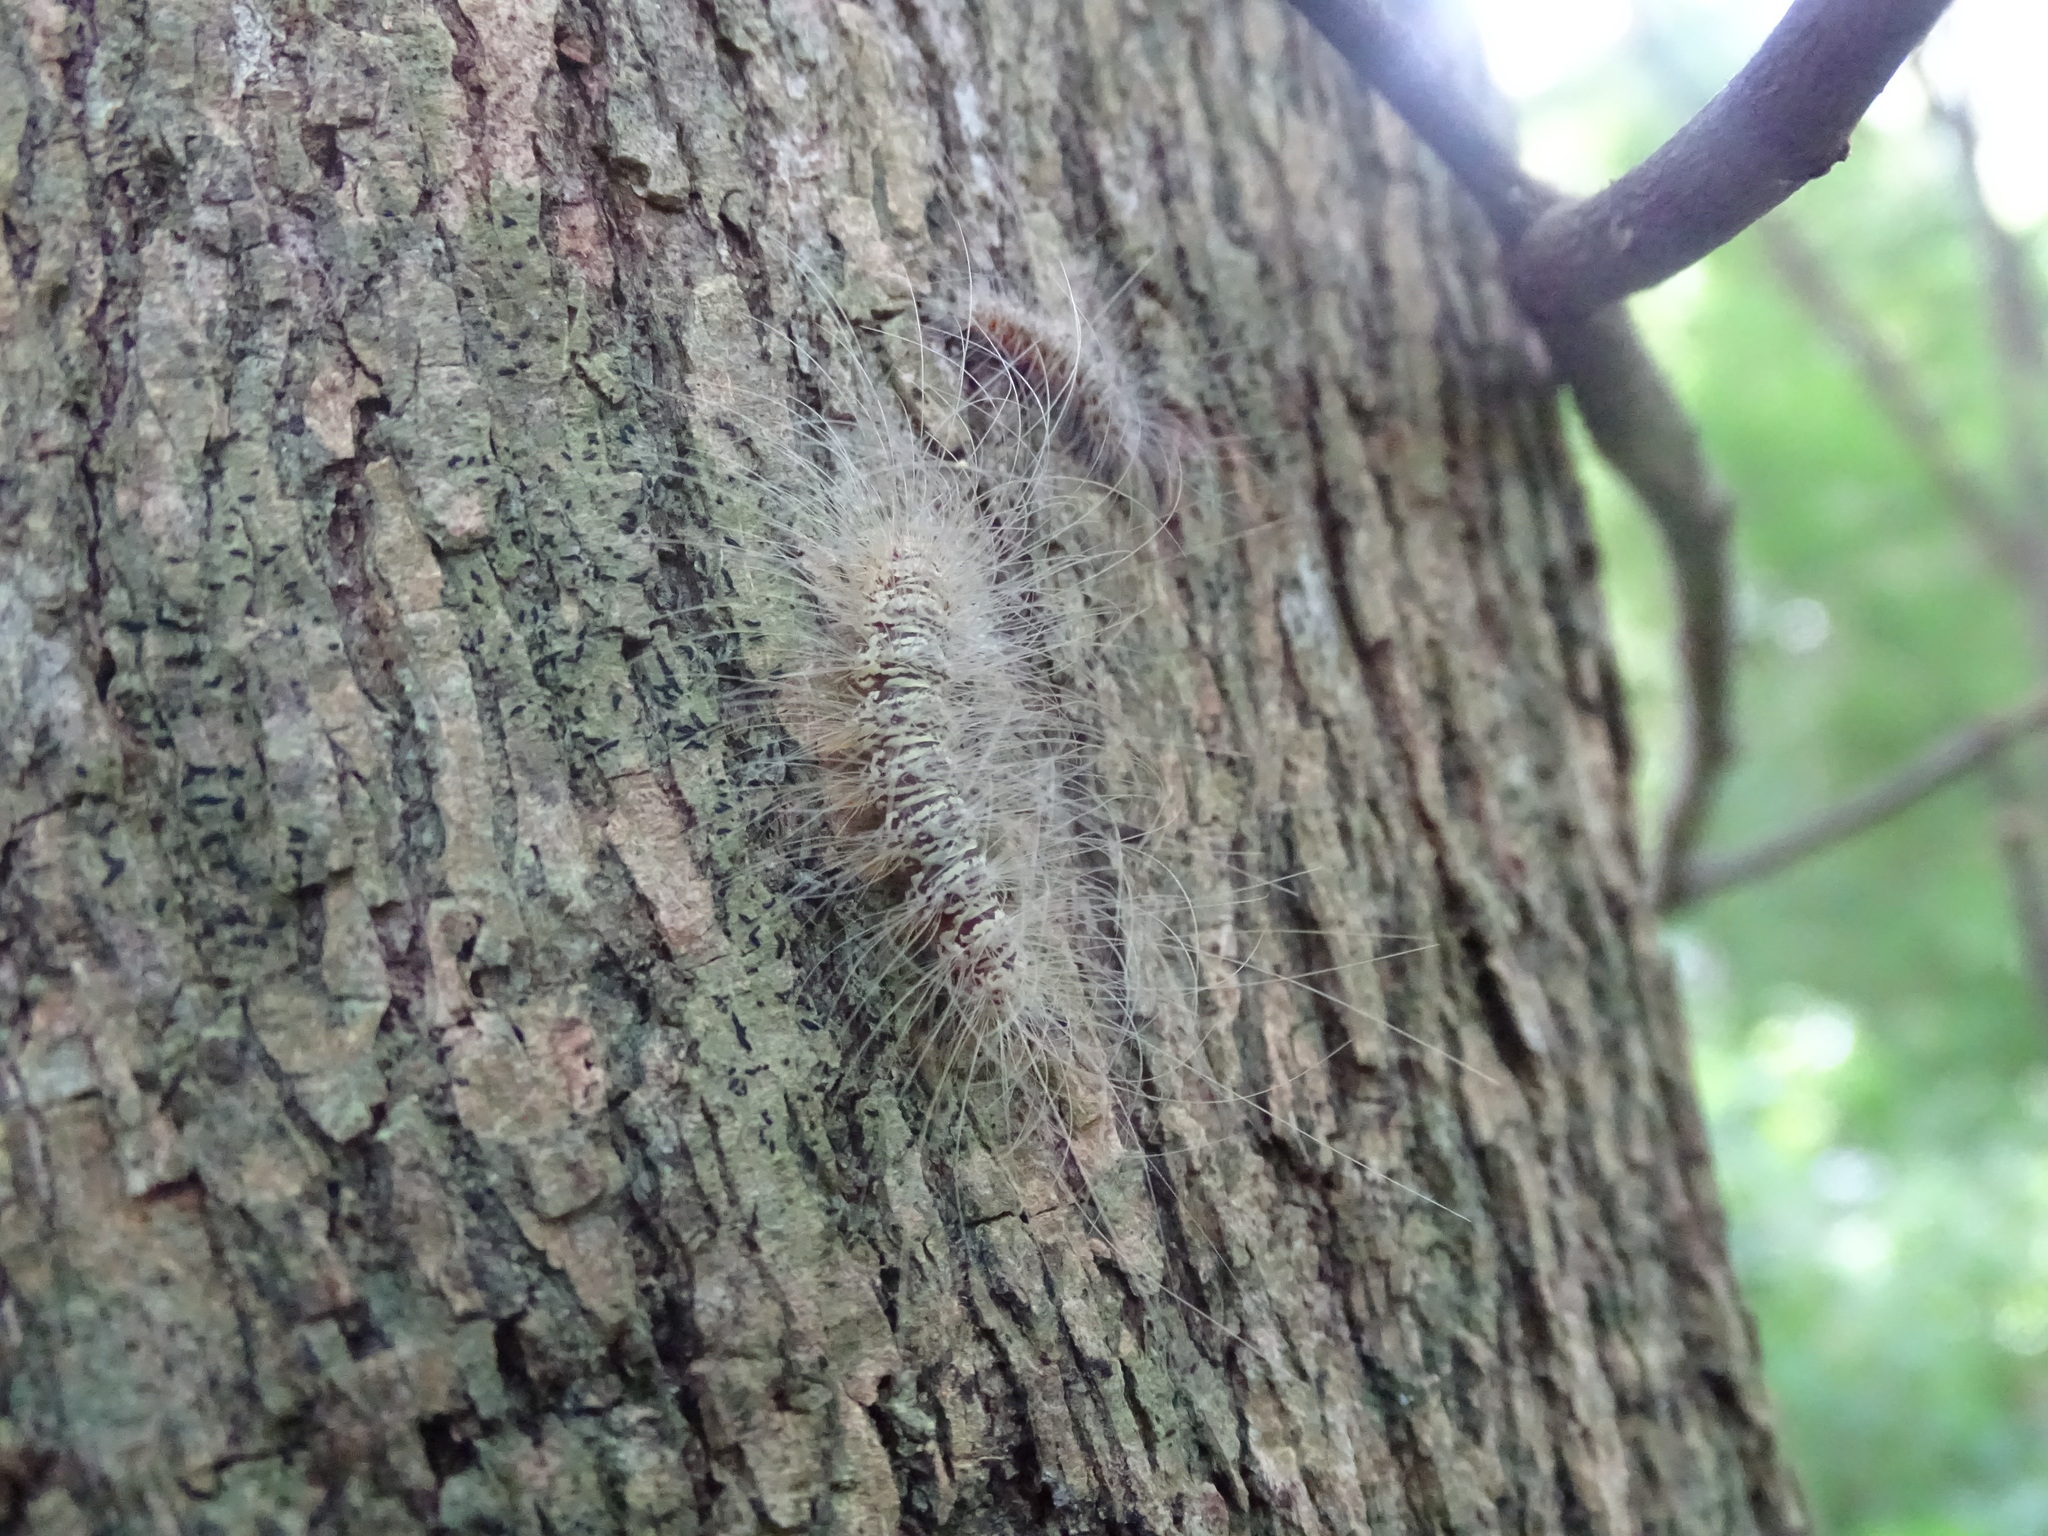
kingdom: Animalia
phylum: Arthropoda
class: Insecta
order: Lepidoptera
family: Erebidae
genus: Eudesmia
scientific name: Eudesmia menea
